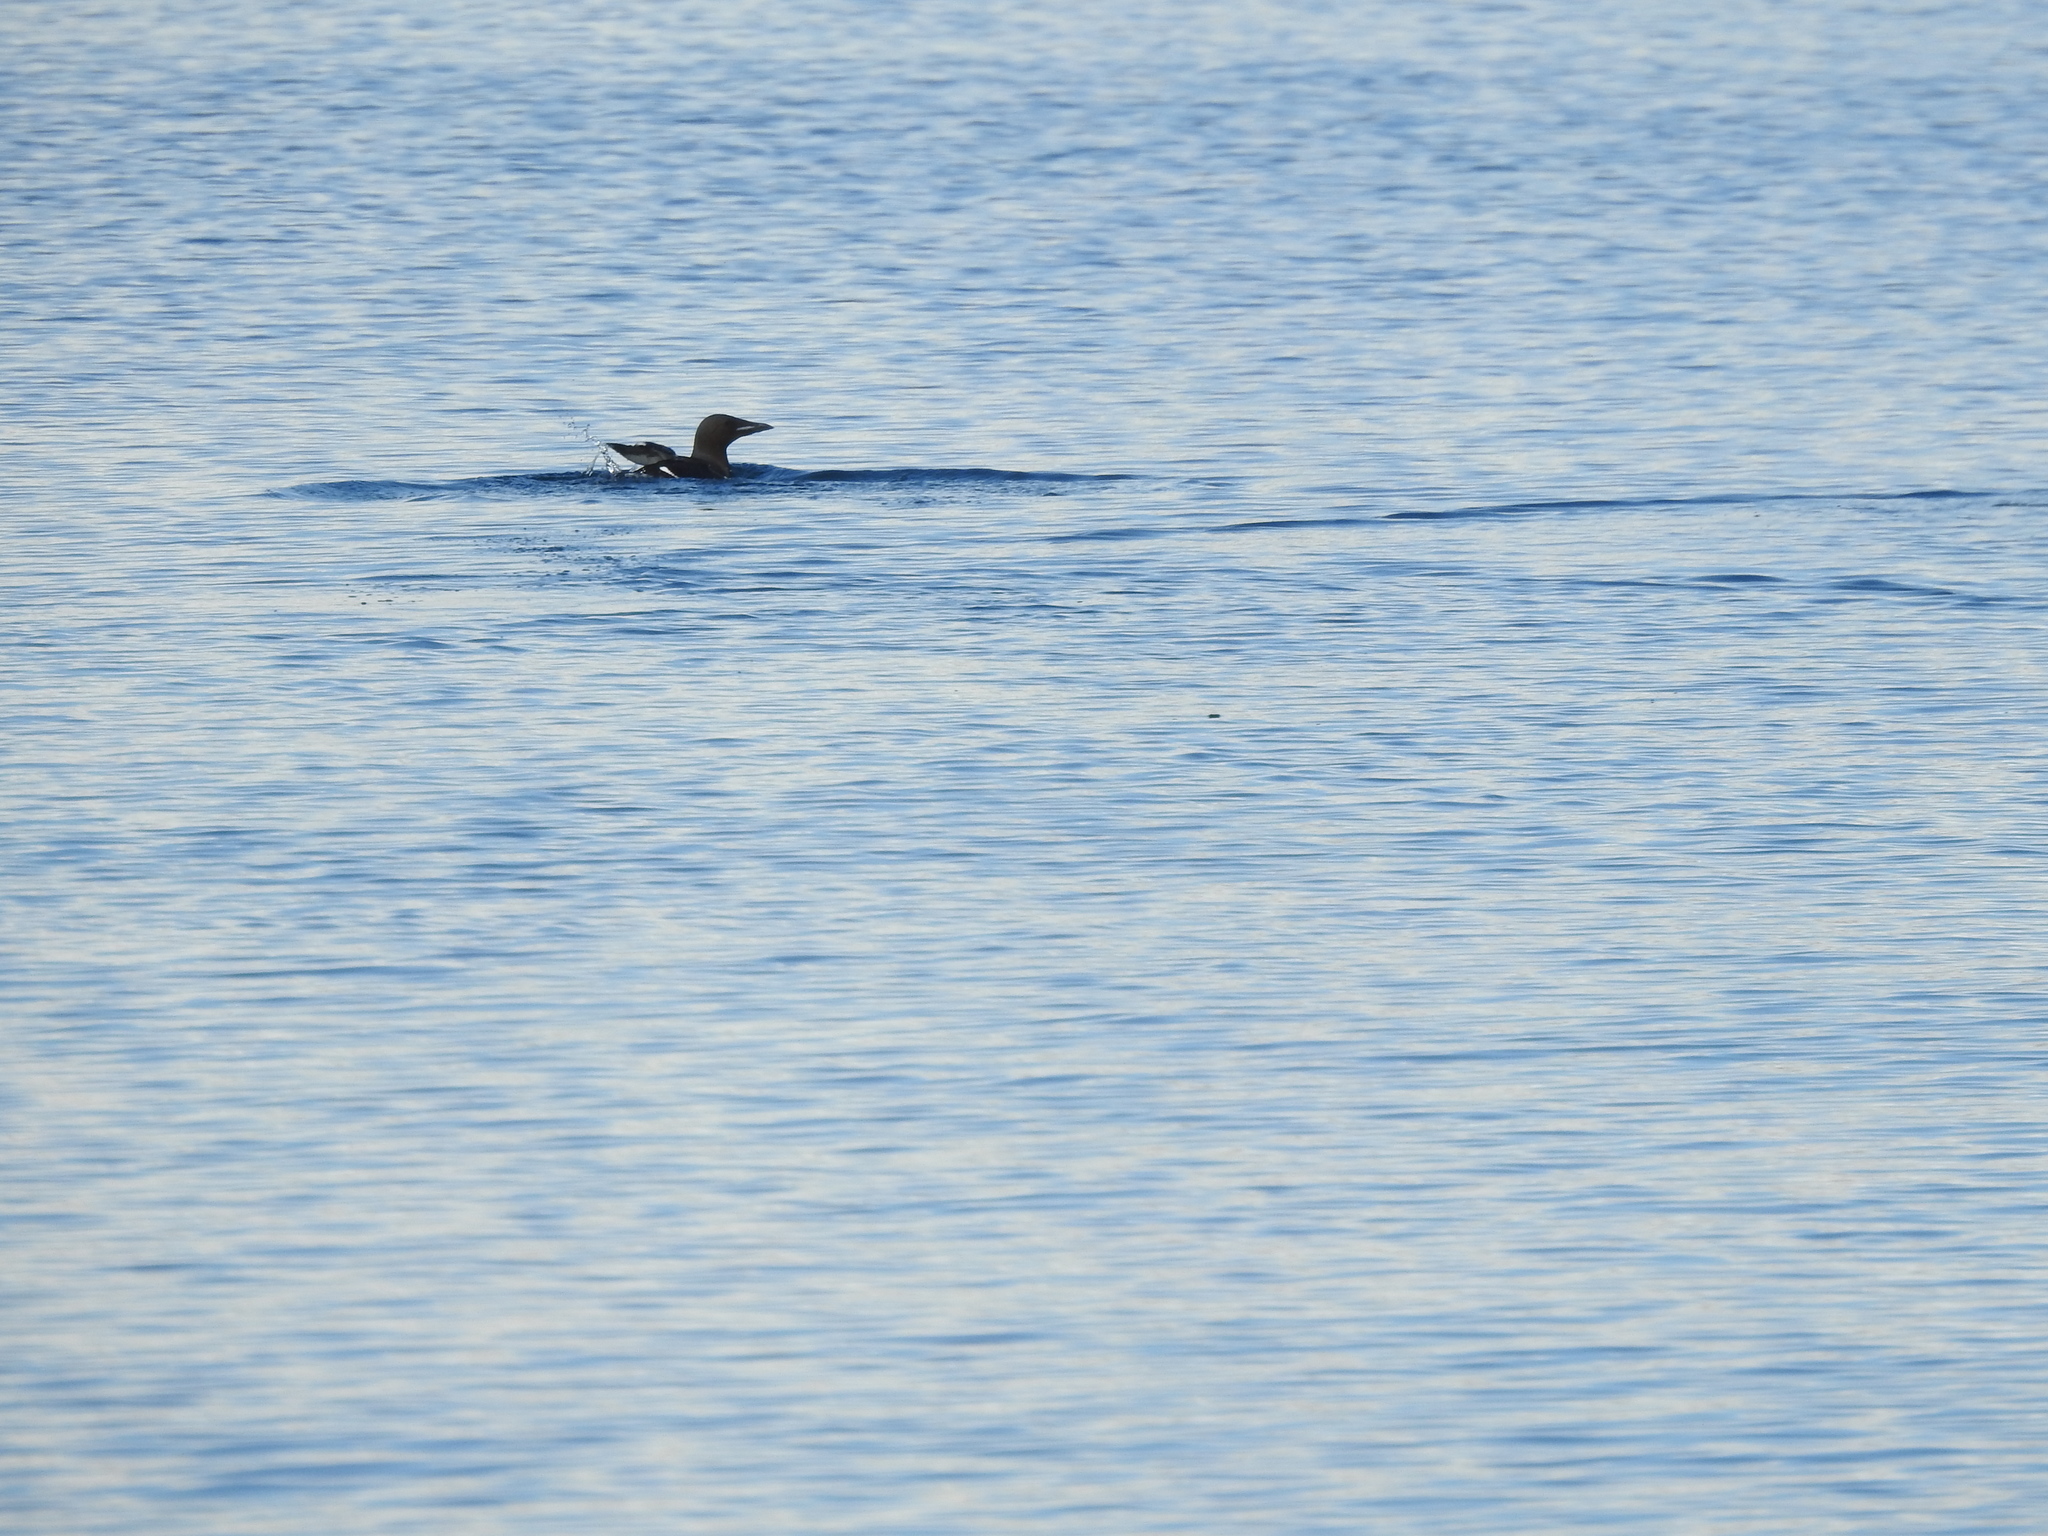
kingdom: Animalia
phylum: Chordata
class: Aves
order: Charadriiformes
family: Alcidae
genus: Uria
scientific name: Uria lomvia
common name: Thick-billed murre
